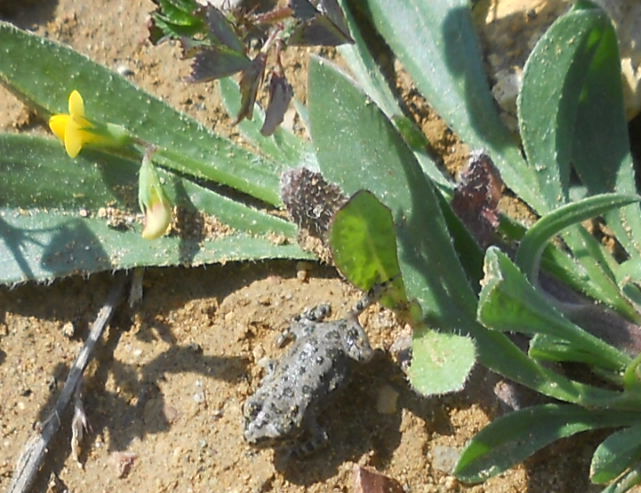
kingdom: Animalia
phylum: Chordata
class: Amphibia
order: Anura
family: Bufonidae
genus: Bufotes
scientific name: Bufotes viridis
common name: European green toad
